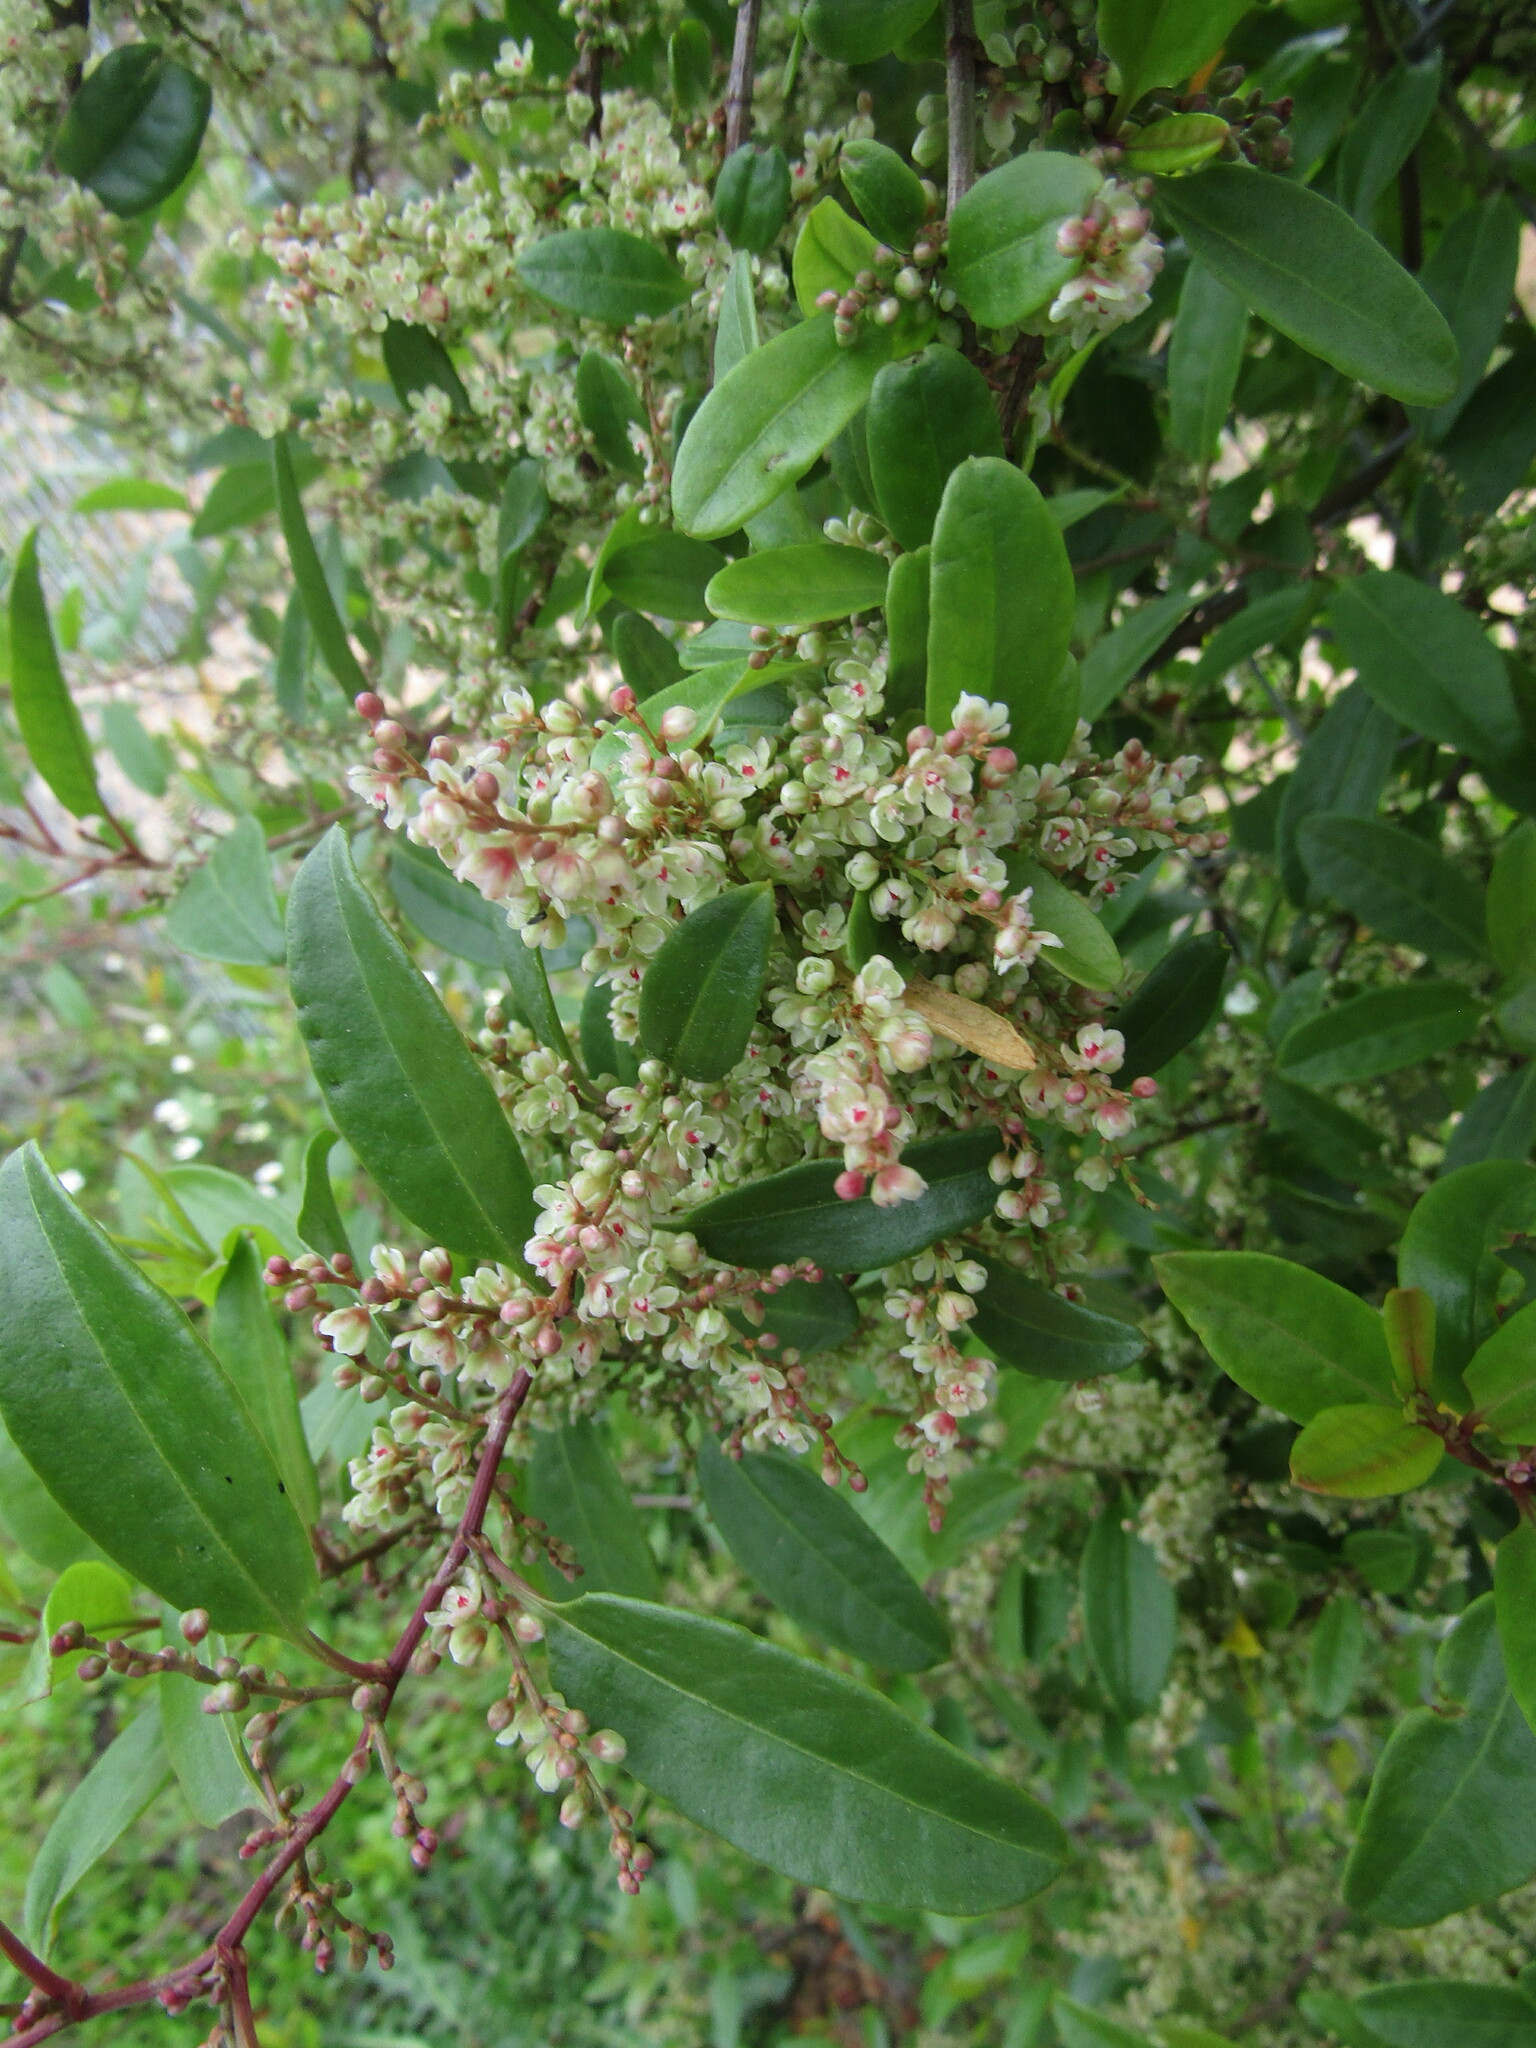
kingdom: Plantae
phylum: Tracheophyta
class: Magnoliopsida
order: Caryophyllales
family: Polygonaceae
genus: Muehlenbeckia
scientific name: Muehlenbeckia hastulata
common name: Wirevine
